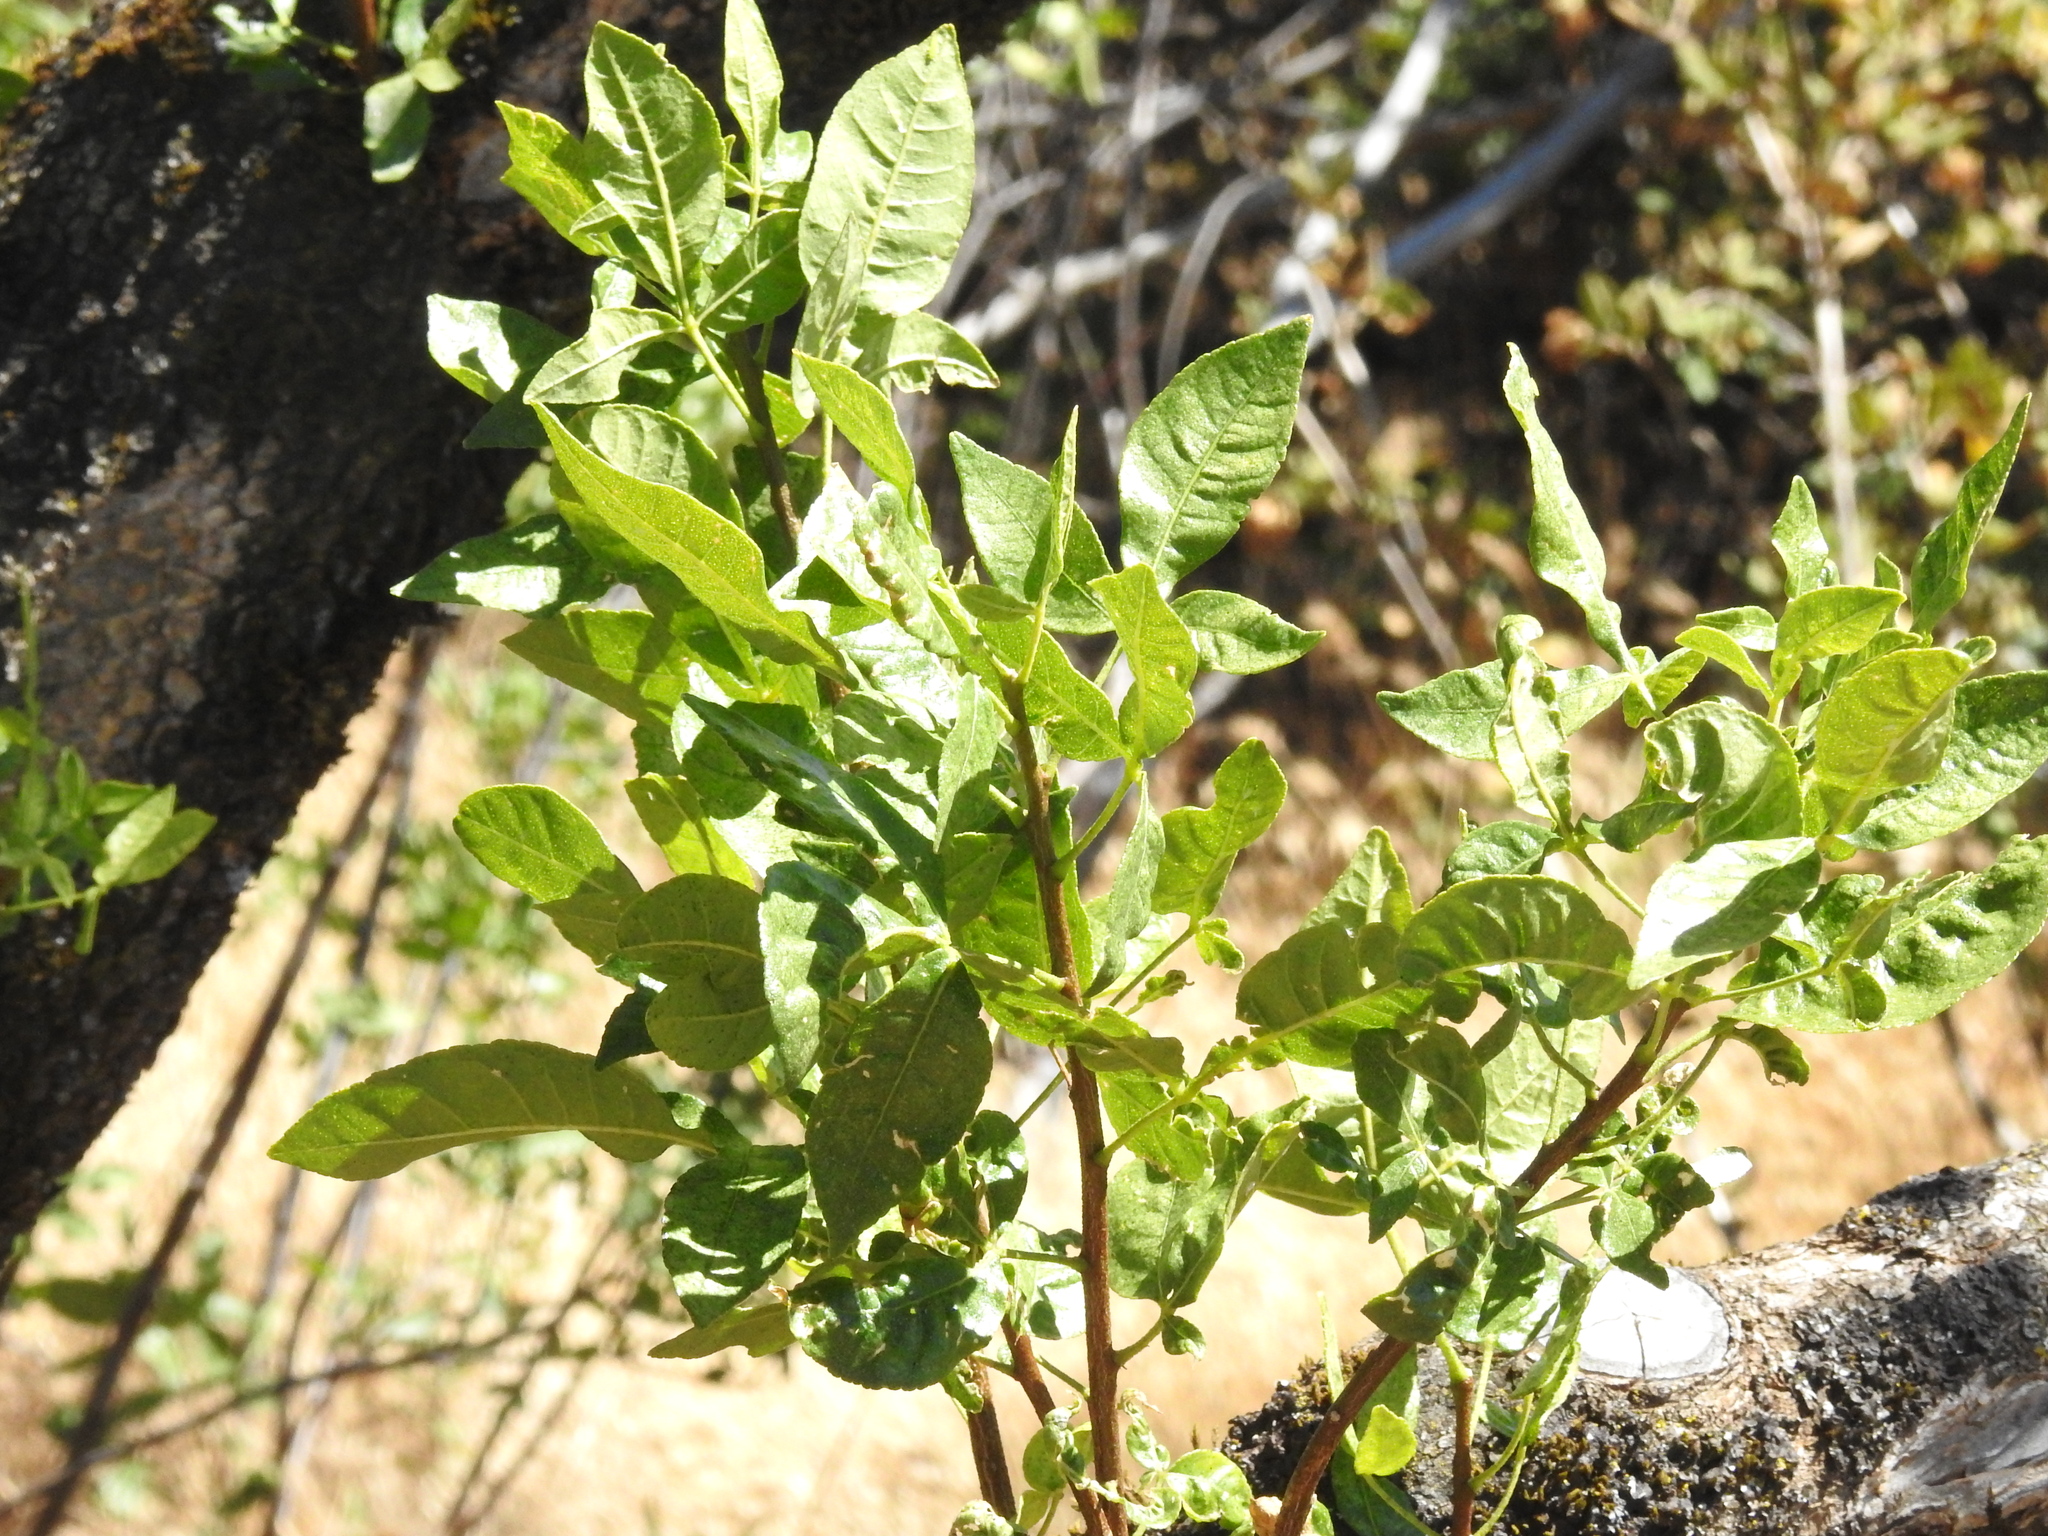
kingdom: Plantae
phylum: Tracheophyta
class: Magnoliopsida
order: Sapindales
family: Rutaceae
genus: Ptelea
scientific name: Ptelea crenulata
